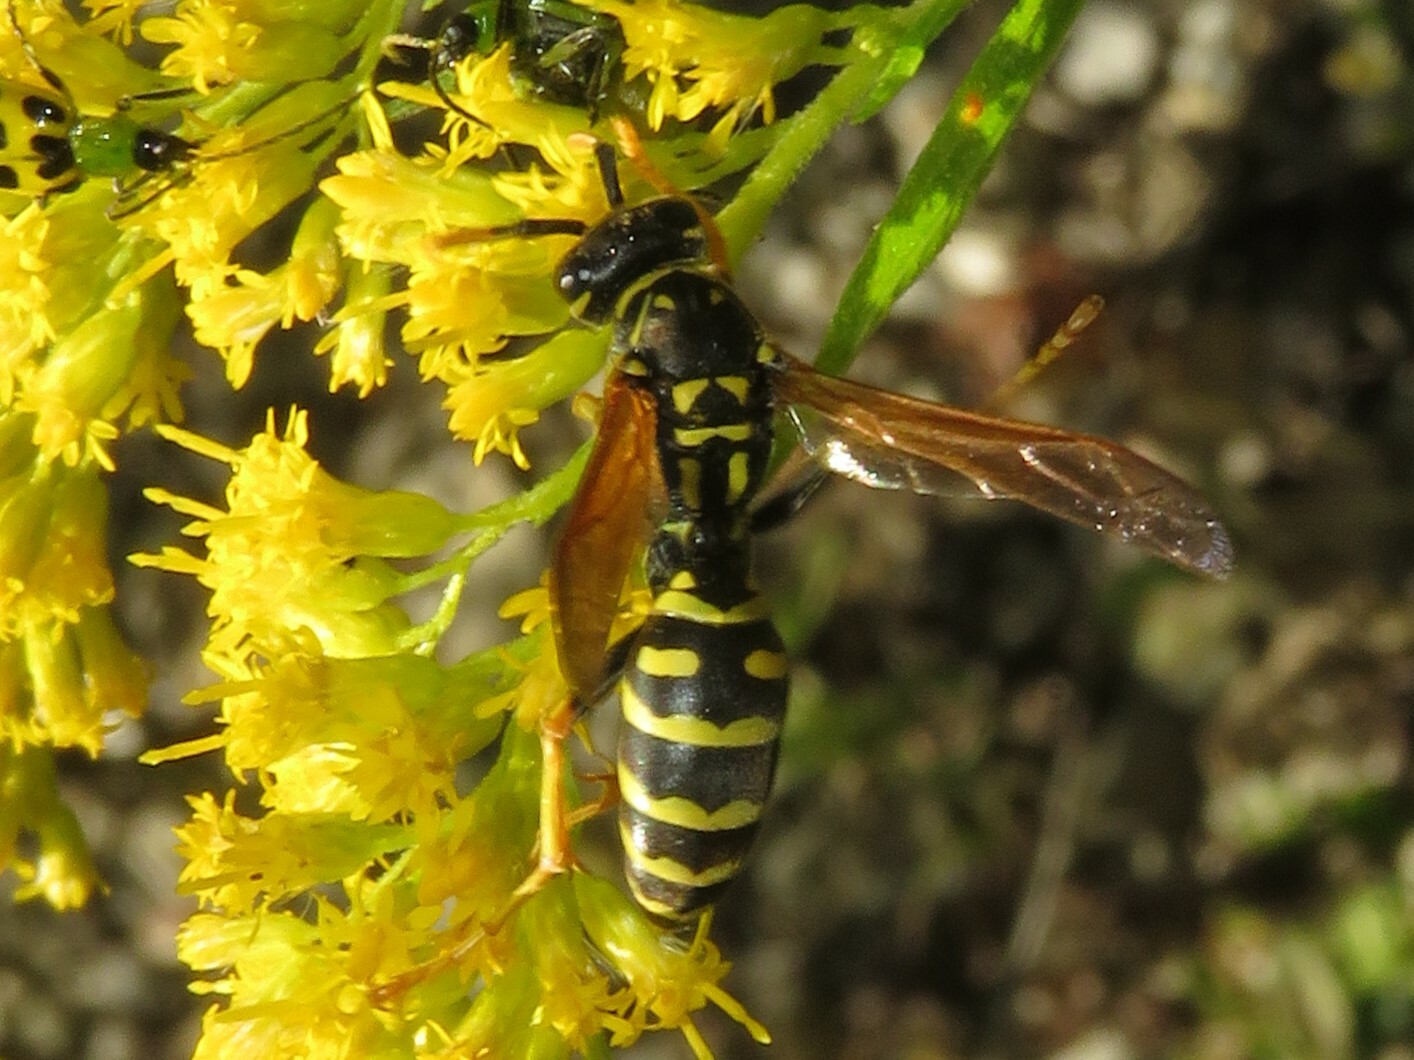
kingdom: Animalia
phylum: Arthropoda
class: Insecta
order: Hymenoptera
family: Eumenidae
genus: Polistes
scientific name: Polistes dominula
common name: Paper wasp
